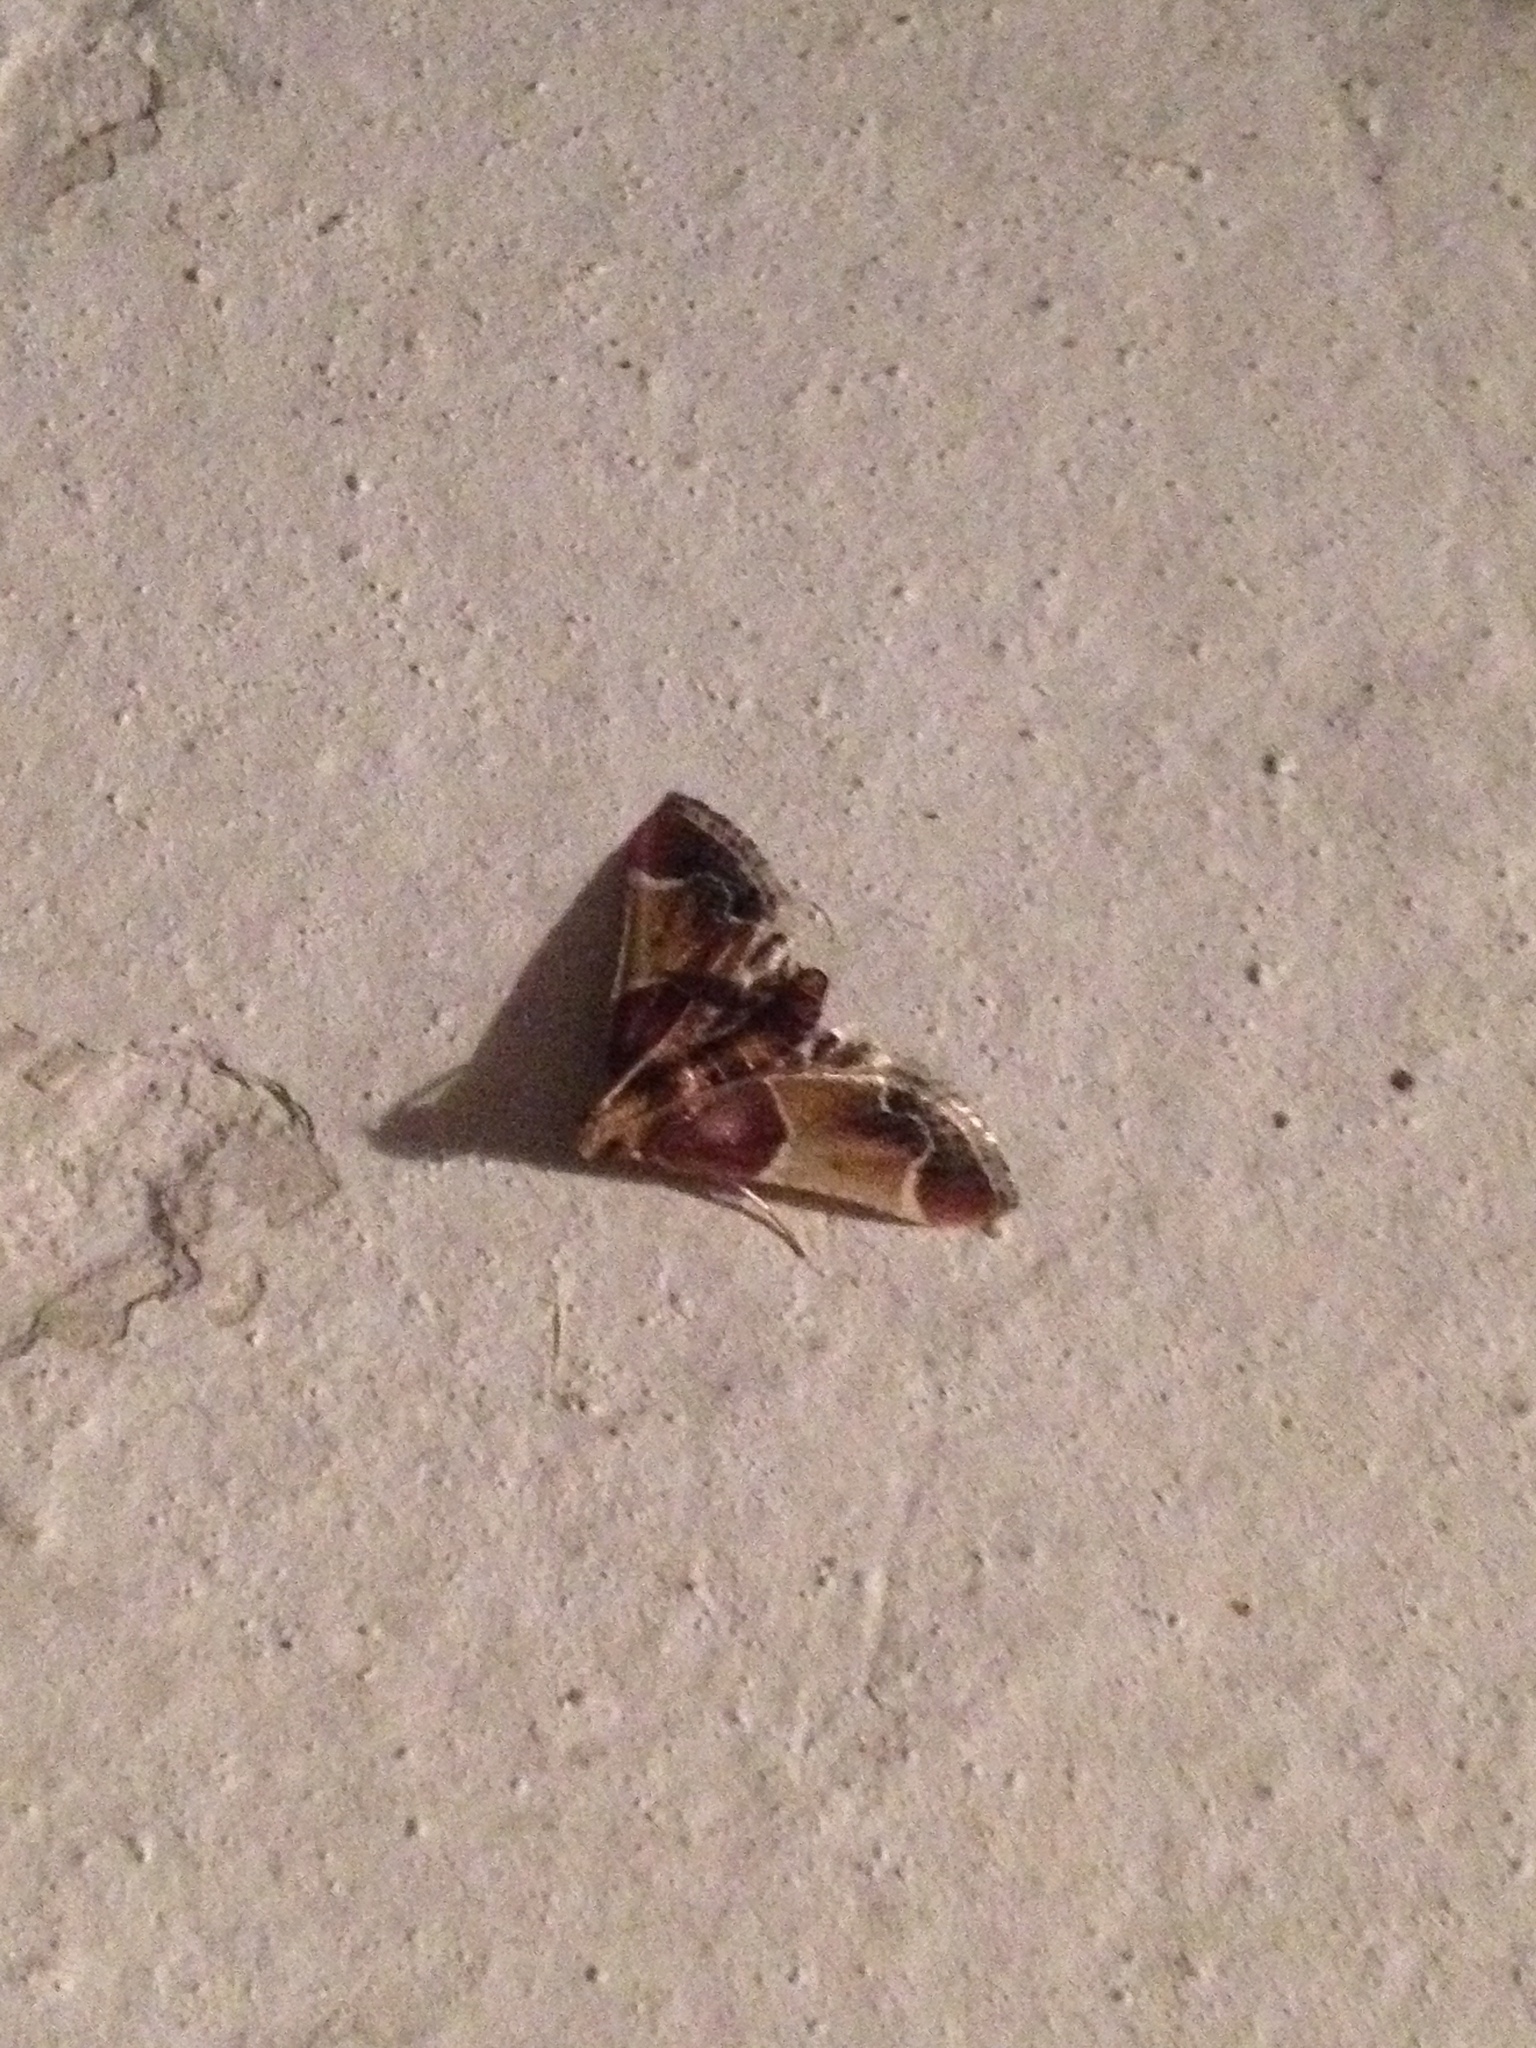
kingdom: Animalia
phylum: Arthropoda
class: Insecta
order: Lepidoptera
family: Pyralidae
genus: Pyralis
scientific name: Pyralis farinalis
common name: Meal moth
